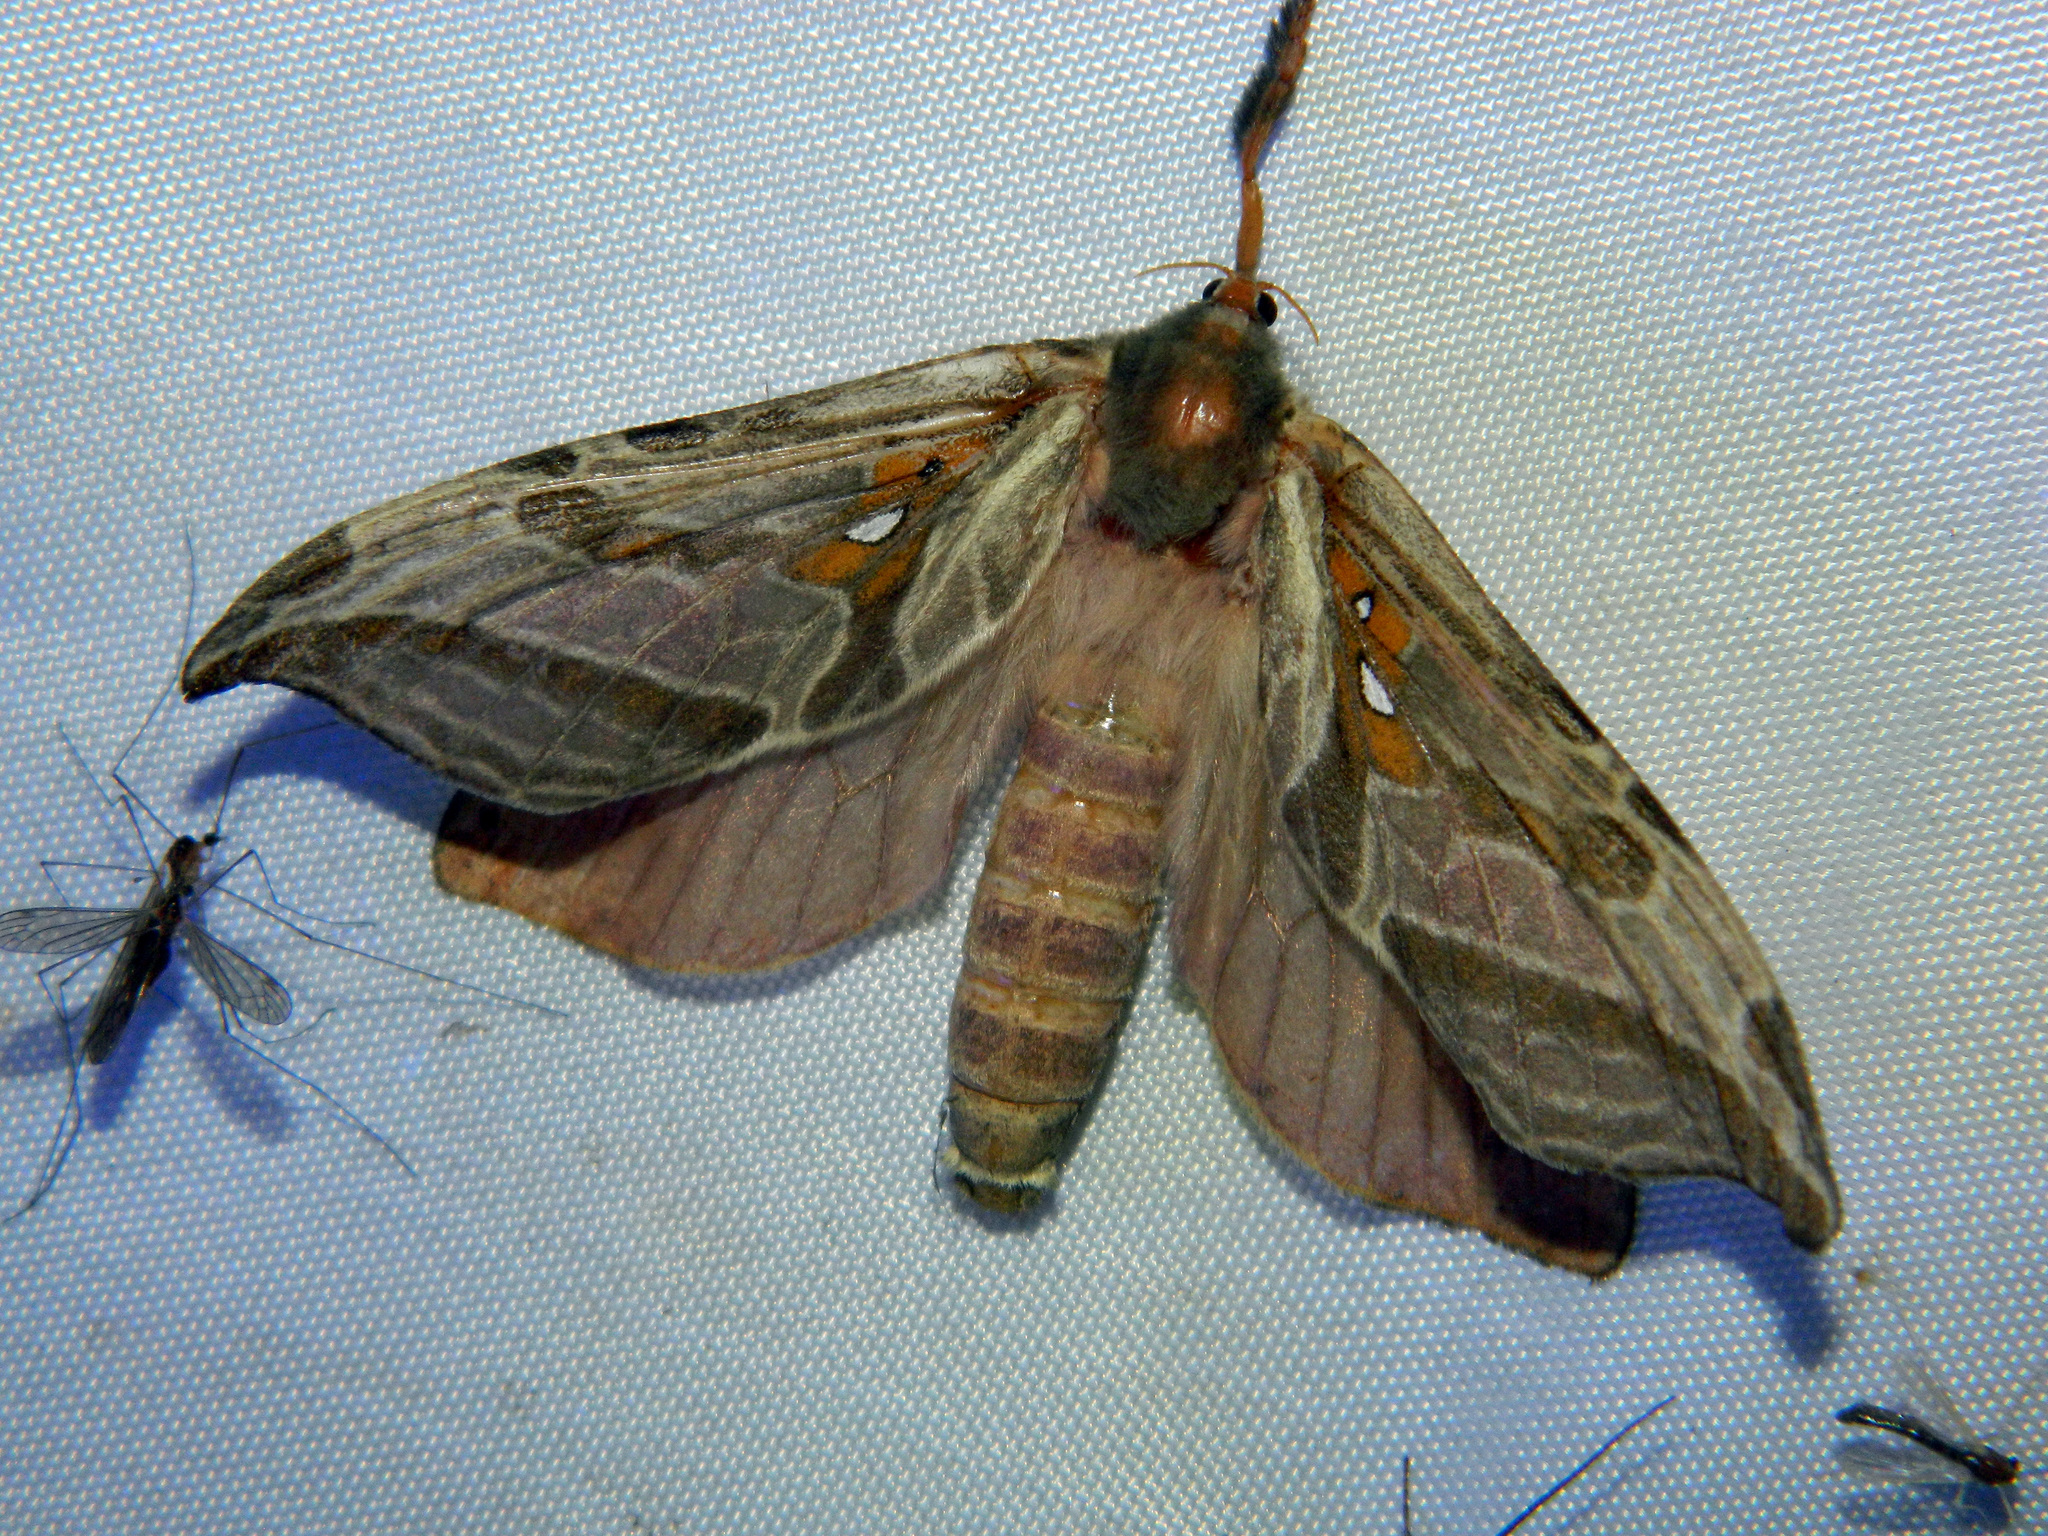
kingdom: Animalia
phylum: Arthropoda
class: Insecta
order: Lepidoptera
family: Hepialidae
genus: Sthenopis
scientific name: Sthenopis argenteomaculatus
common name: Silver-spotted ghost moth
